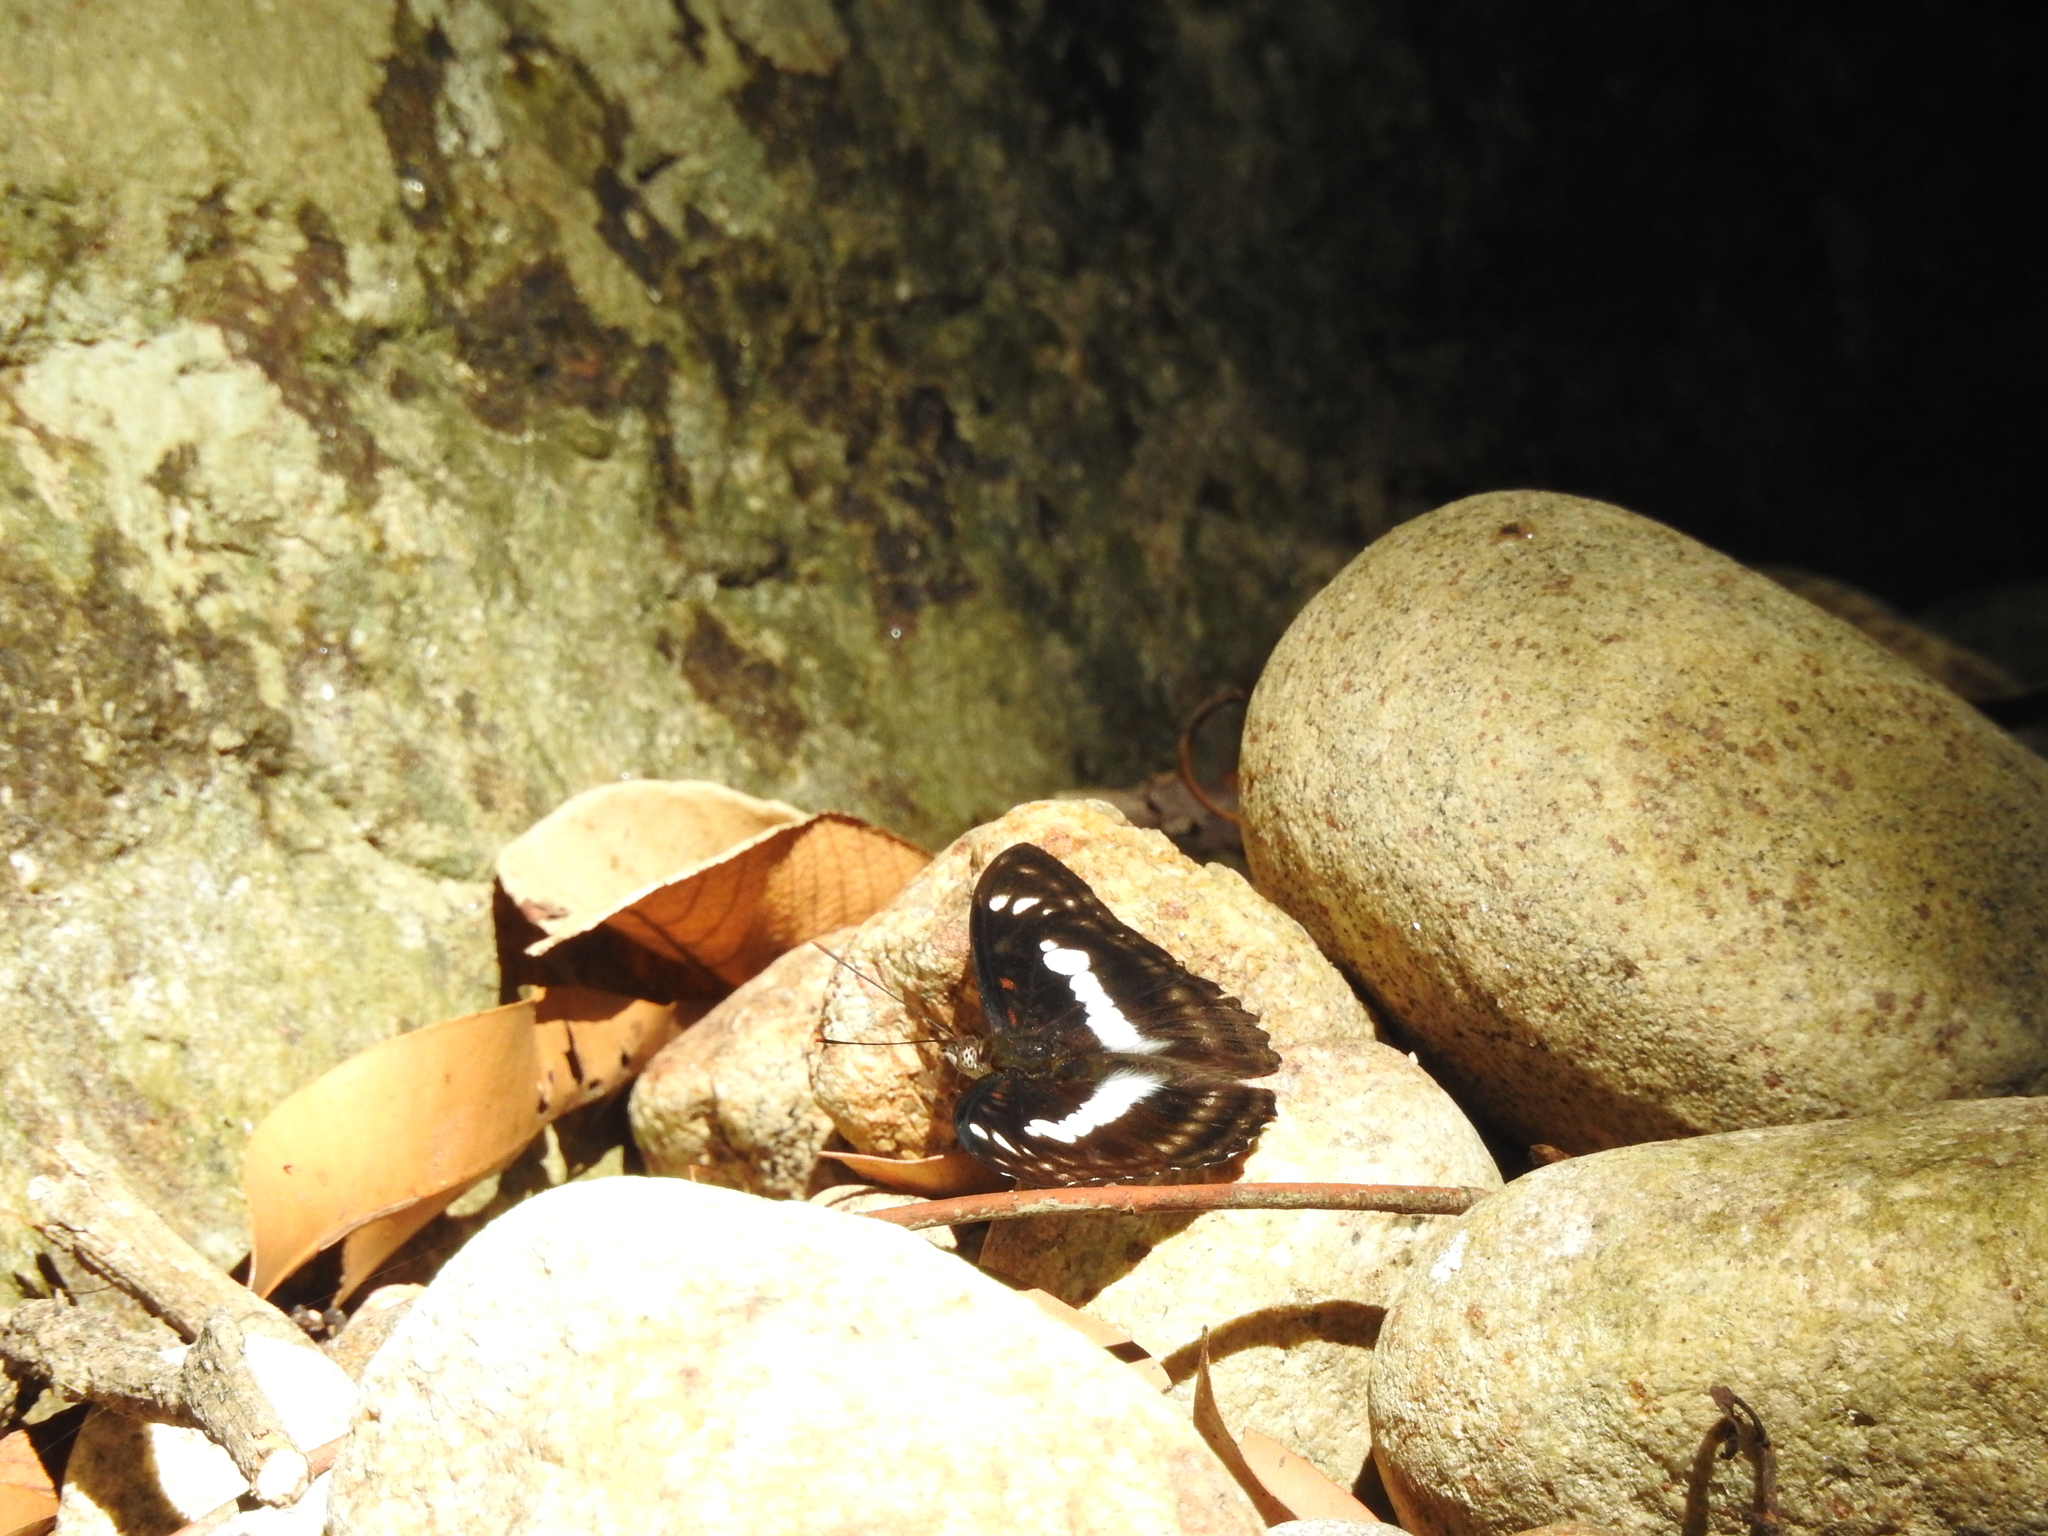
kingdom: Animalia
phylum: Arthropoda
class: Insecta
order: Lepidoptera
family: Nymphalidae
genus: Parathyma
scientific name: Parathyma selenophora
